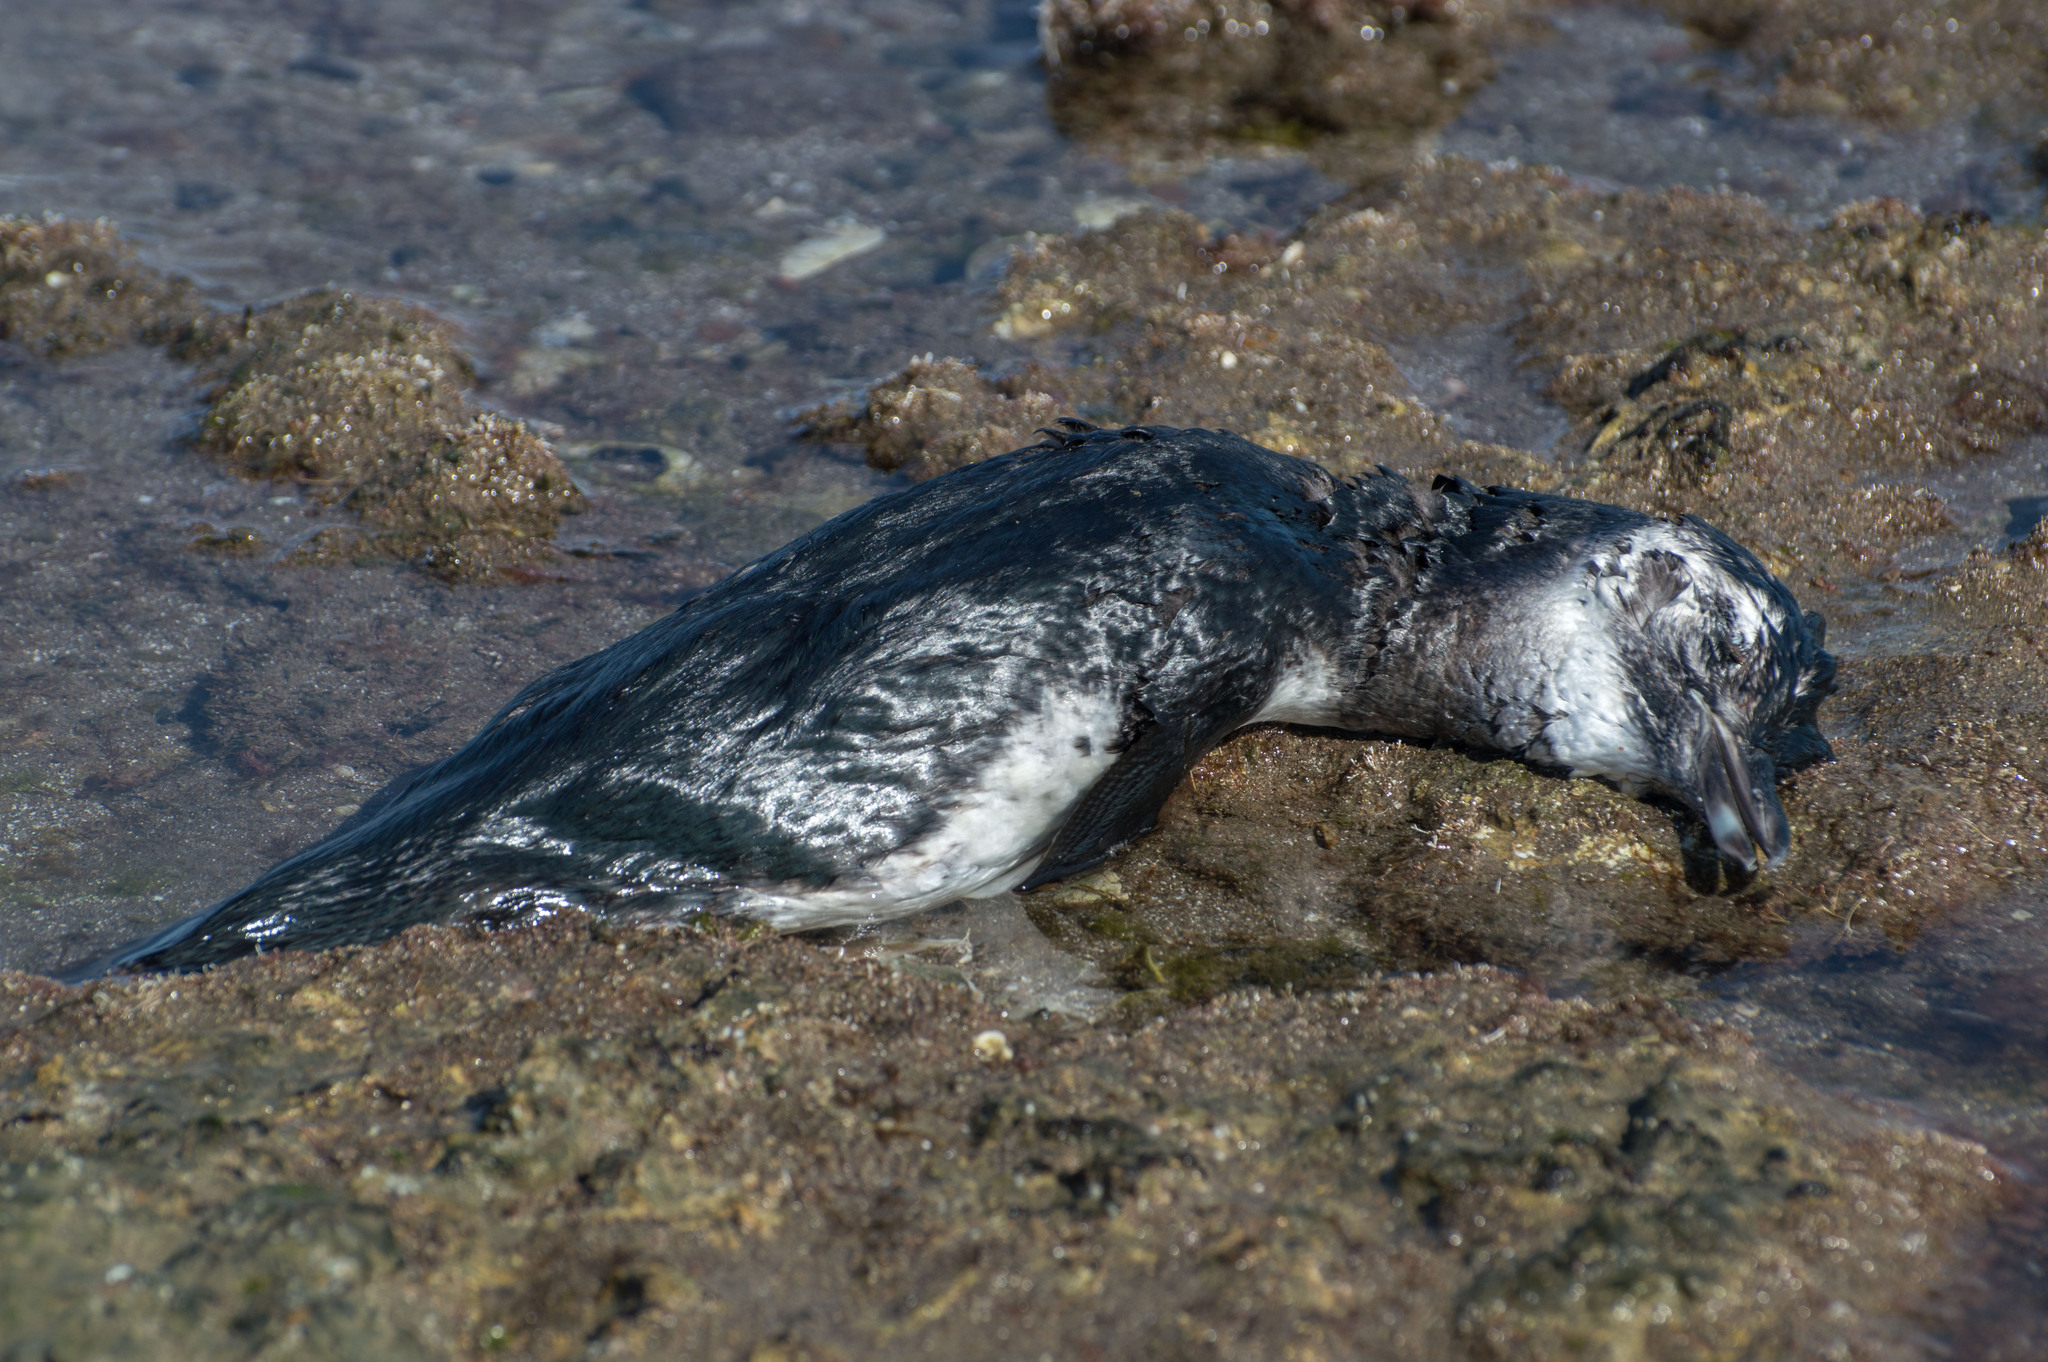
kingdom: Animalia
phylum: Chordata
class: Aves
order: Sphenisciformes
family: Spheniscidae
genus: Spheniscus
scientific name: Spheniscus magellanicus
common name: Magellanic penguin
